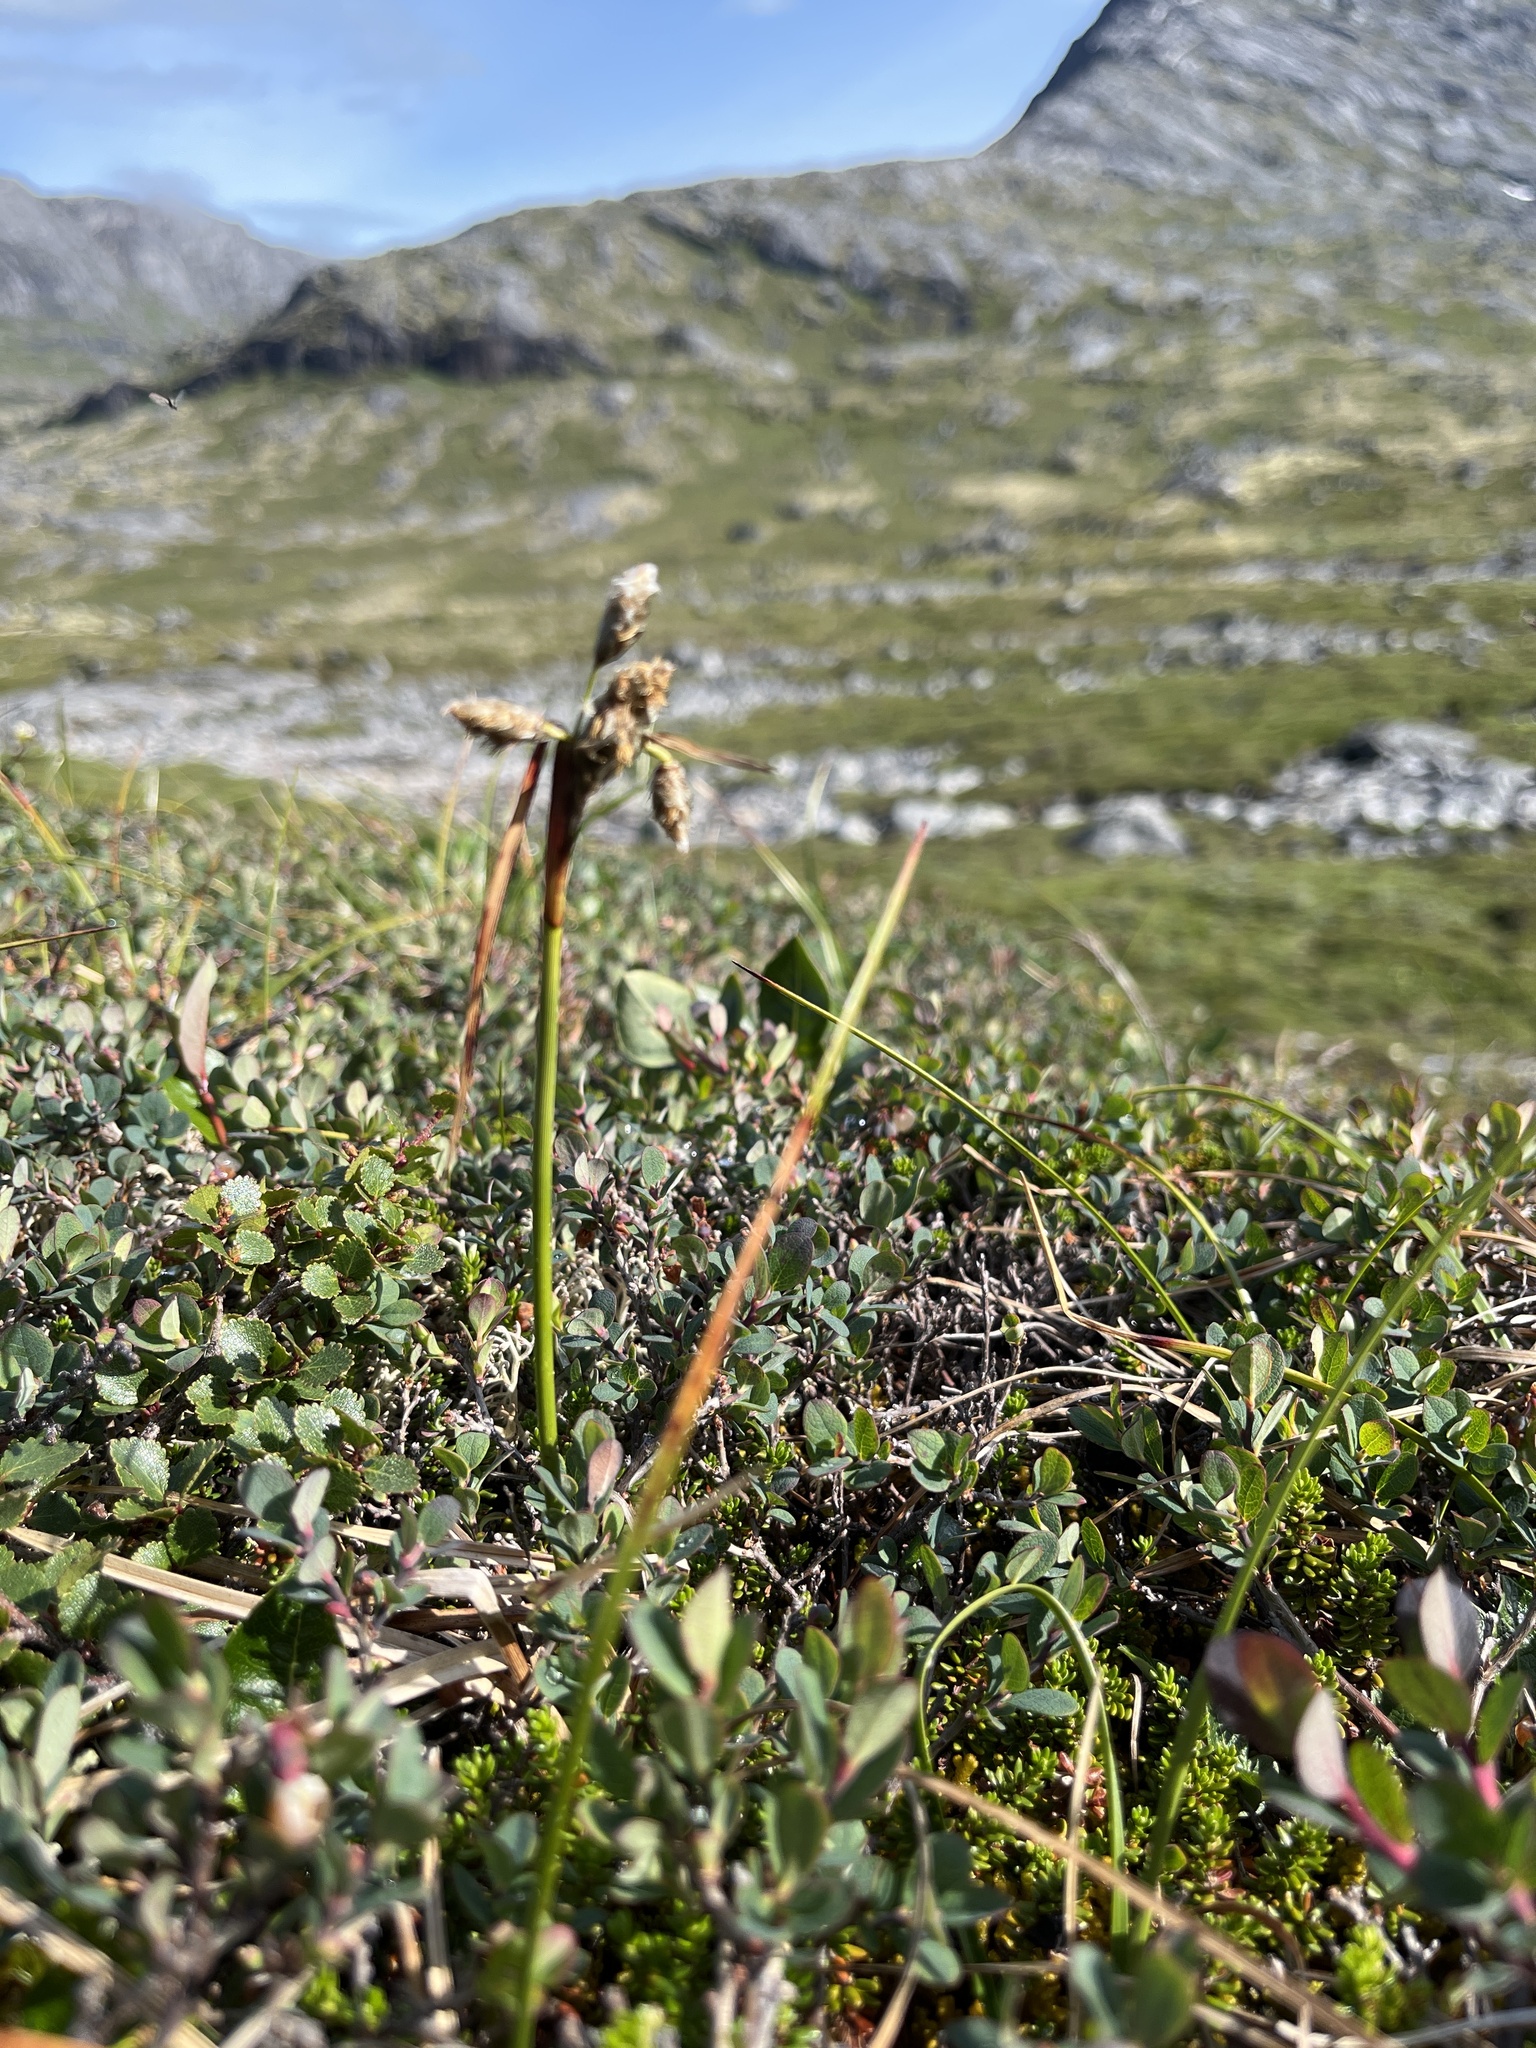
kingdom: Plantae
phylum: Tracheophyta
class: Liliopsida
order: Poales
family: Cyperaceae
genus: Eriophorum
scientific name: Eriophorum angustifolium
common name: Common cottongrass
